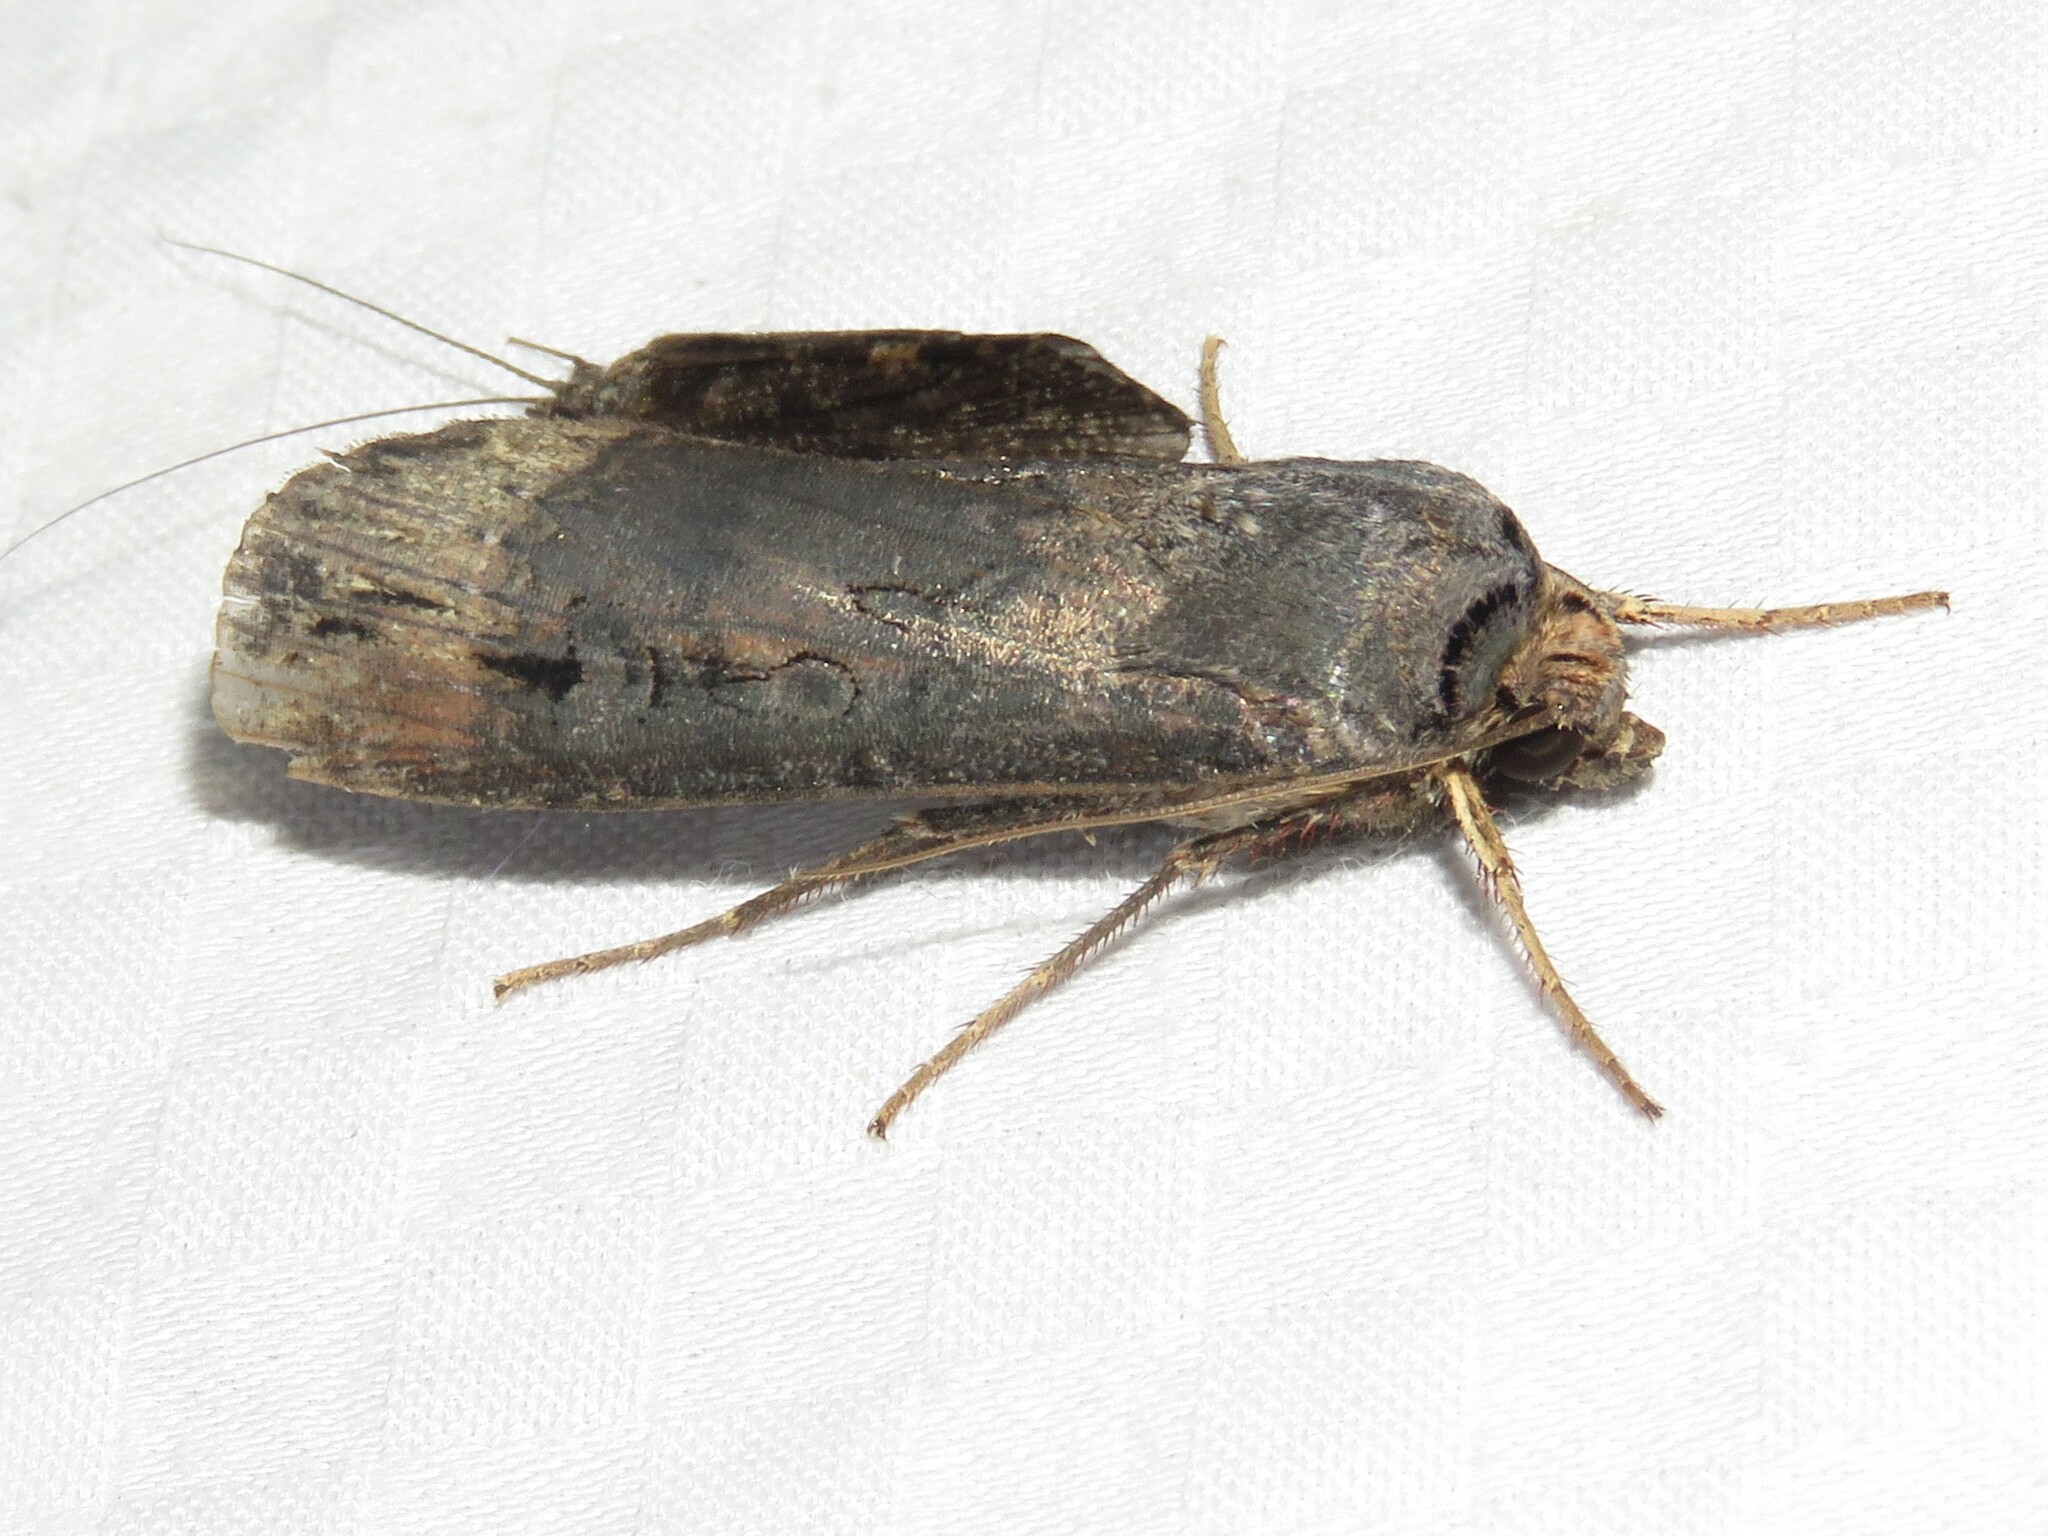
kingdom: Animalia
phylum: Arthropoda
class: Insecta
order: Lepidoptera
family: Noctuidae
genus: Agrotis
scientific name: Agrotis ipsilon
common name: Dark sword-grass
